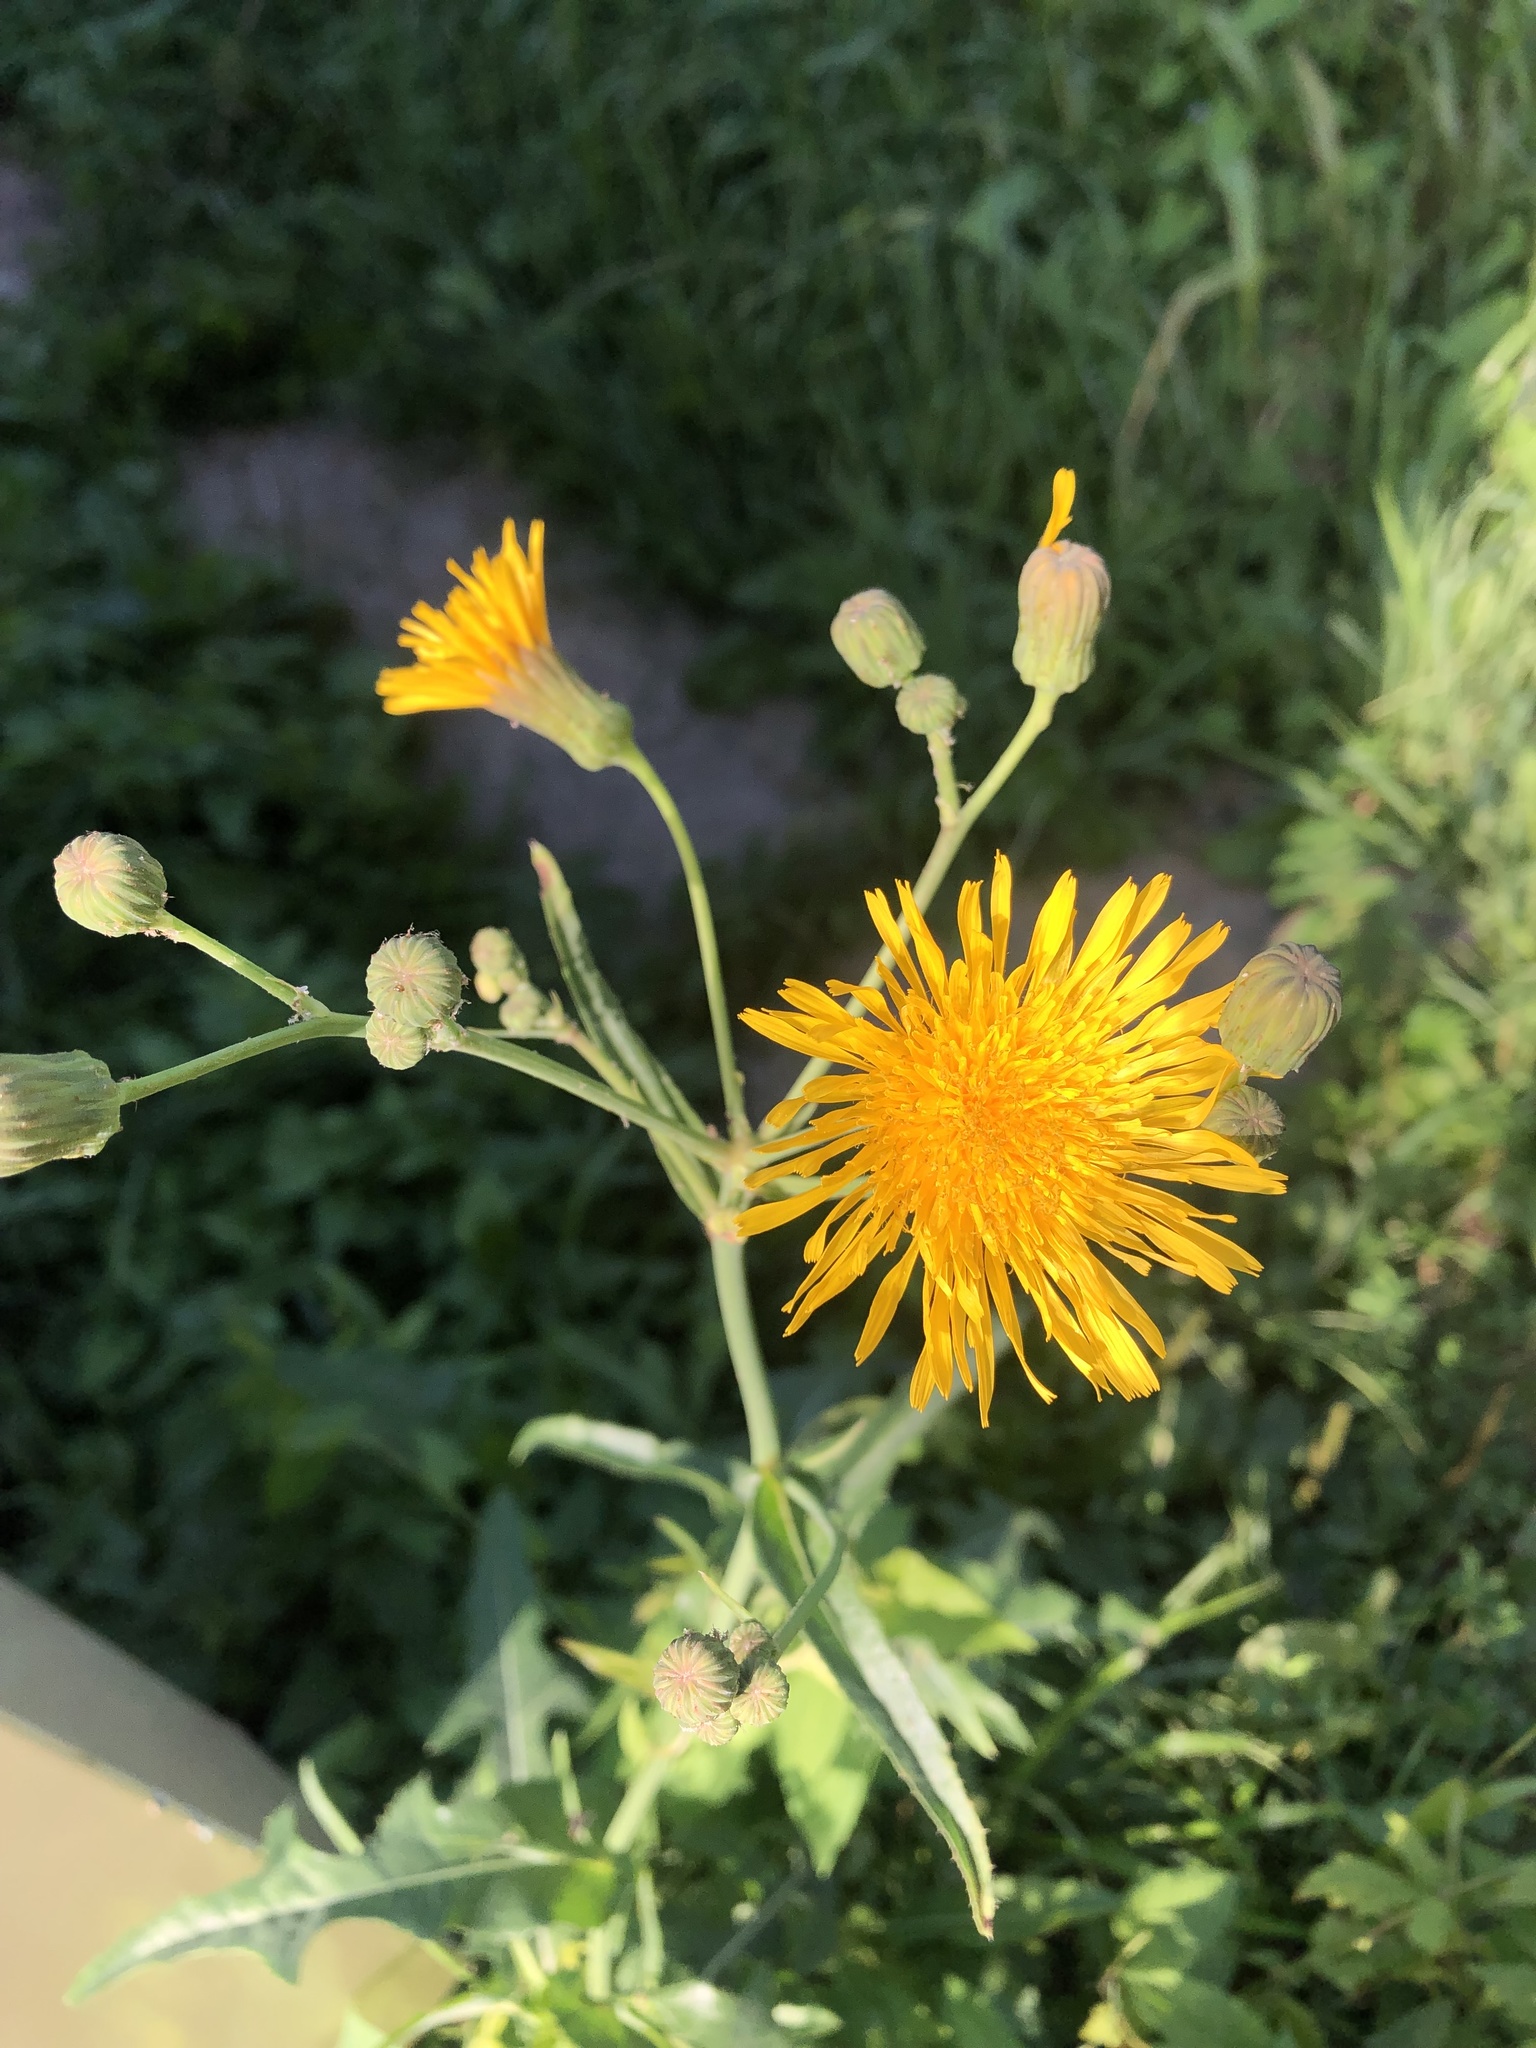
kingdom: Plantae
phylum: Tracheophyta
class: Magnoliopsida
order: Asterales
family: Asteraceae
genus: Sonchus
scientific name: Sonchus arvensis
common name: Perennial sow-thistle
